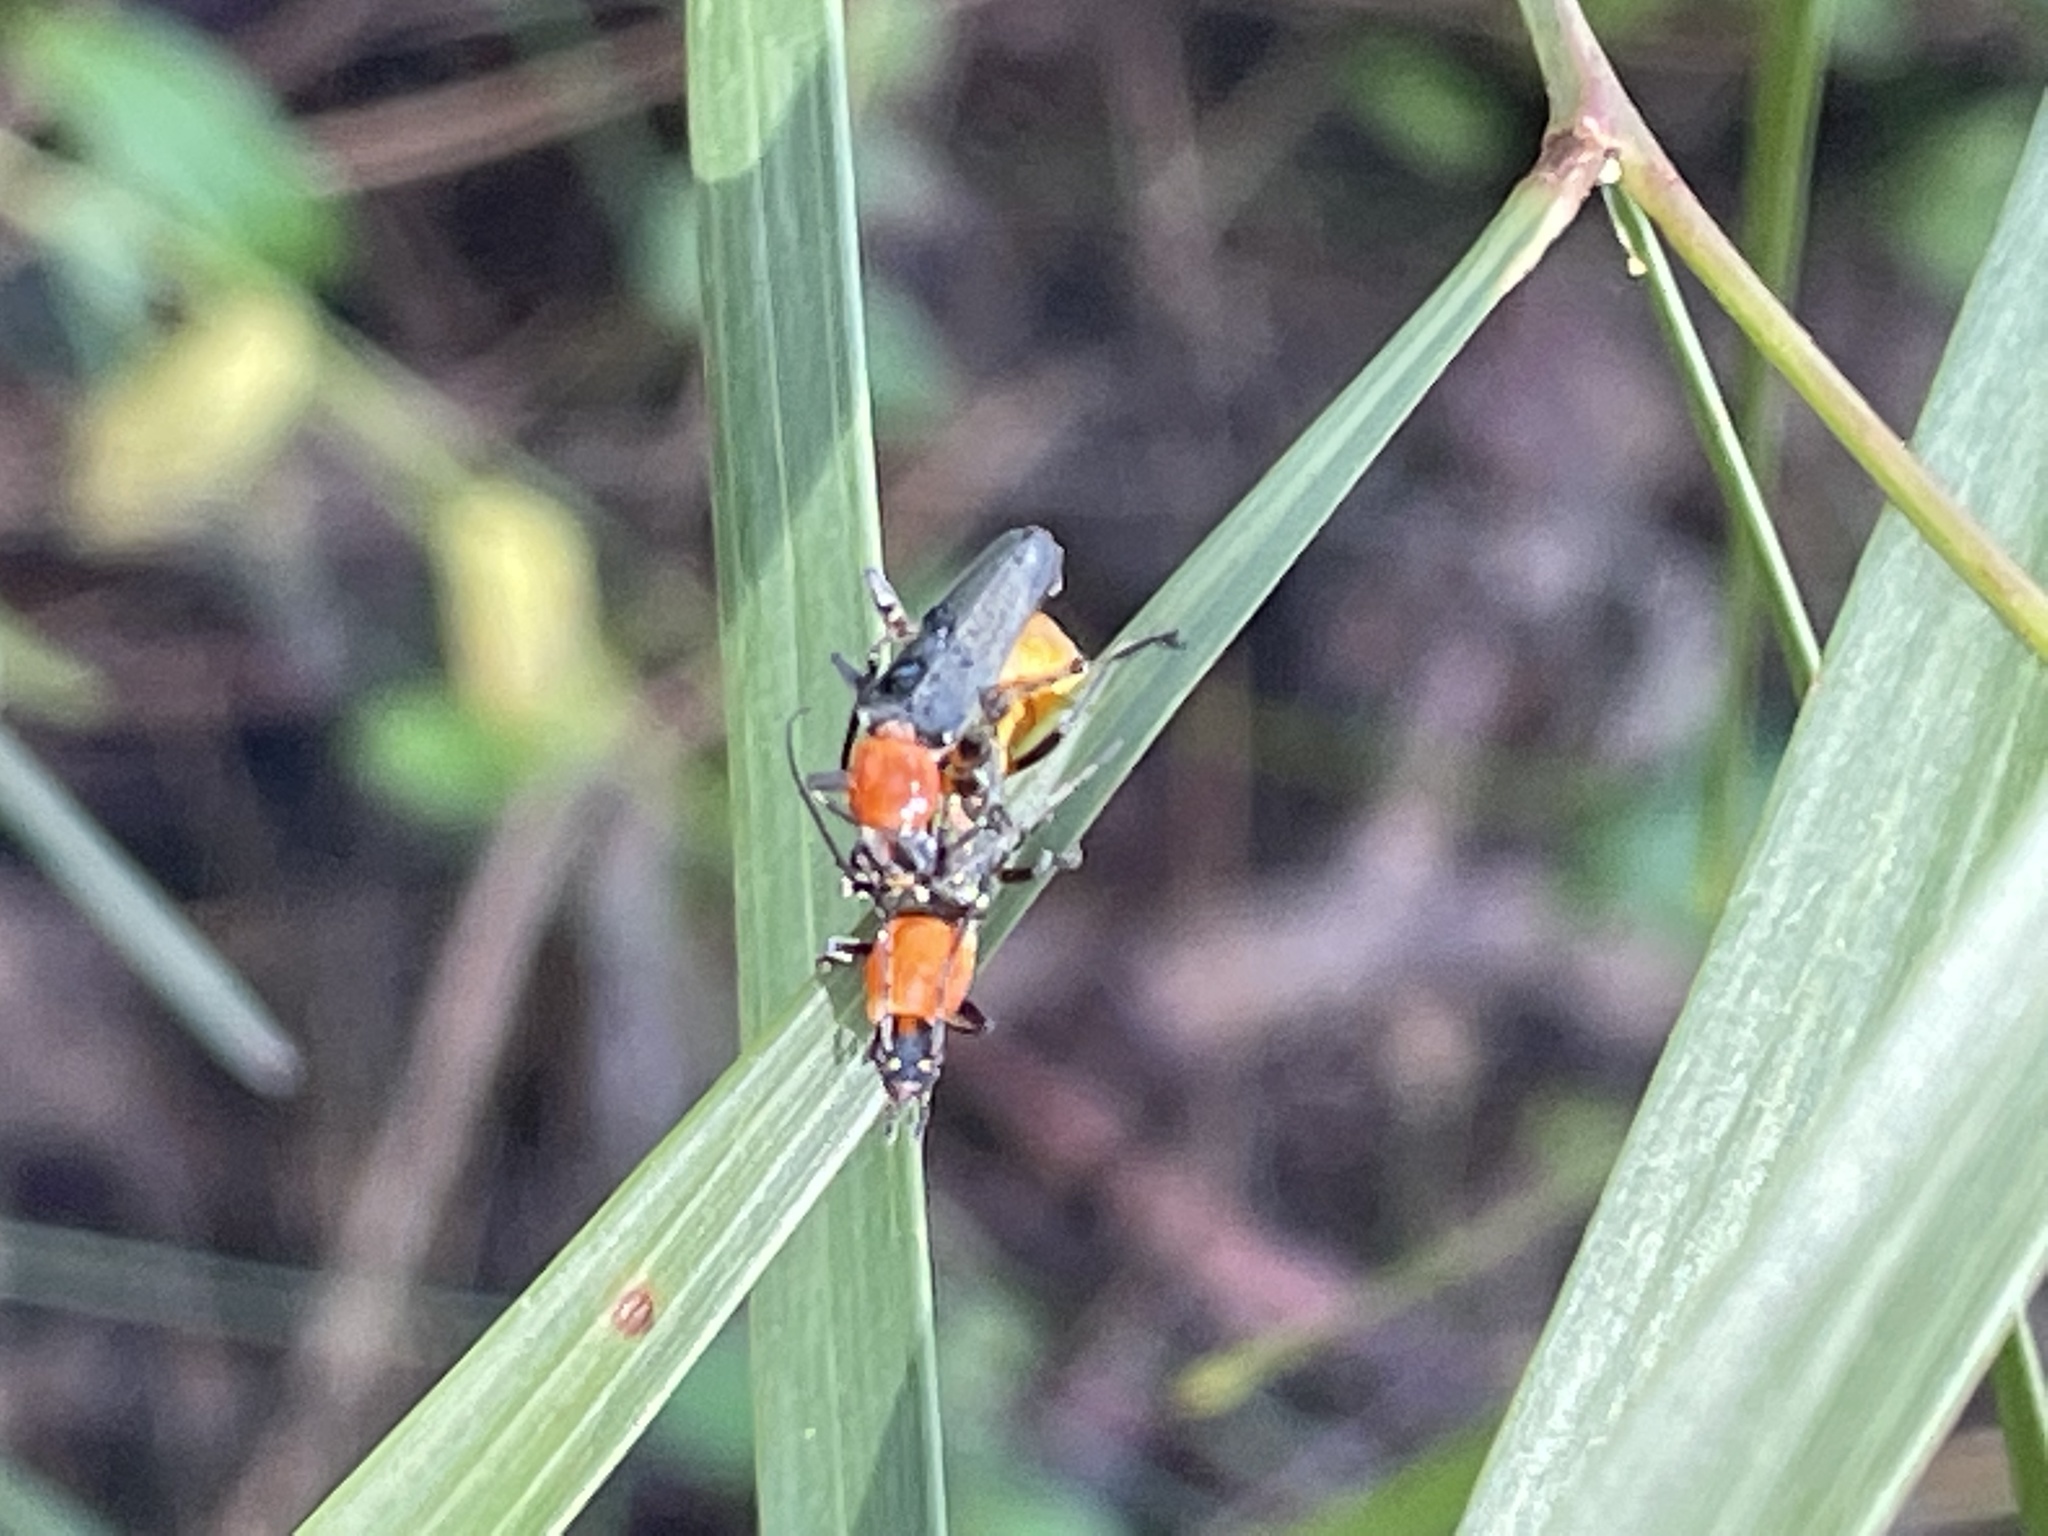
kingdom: Animalia
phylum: Arthropoda
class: Insecta
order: Coleoptera
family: Cantharidae
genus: Chauliognathus
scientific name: Chauliognathus
